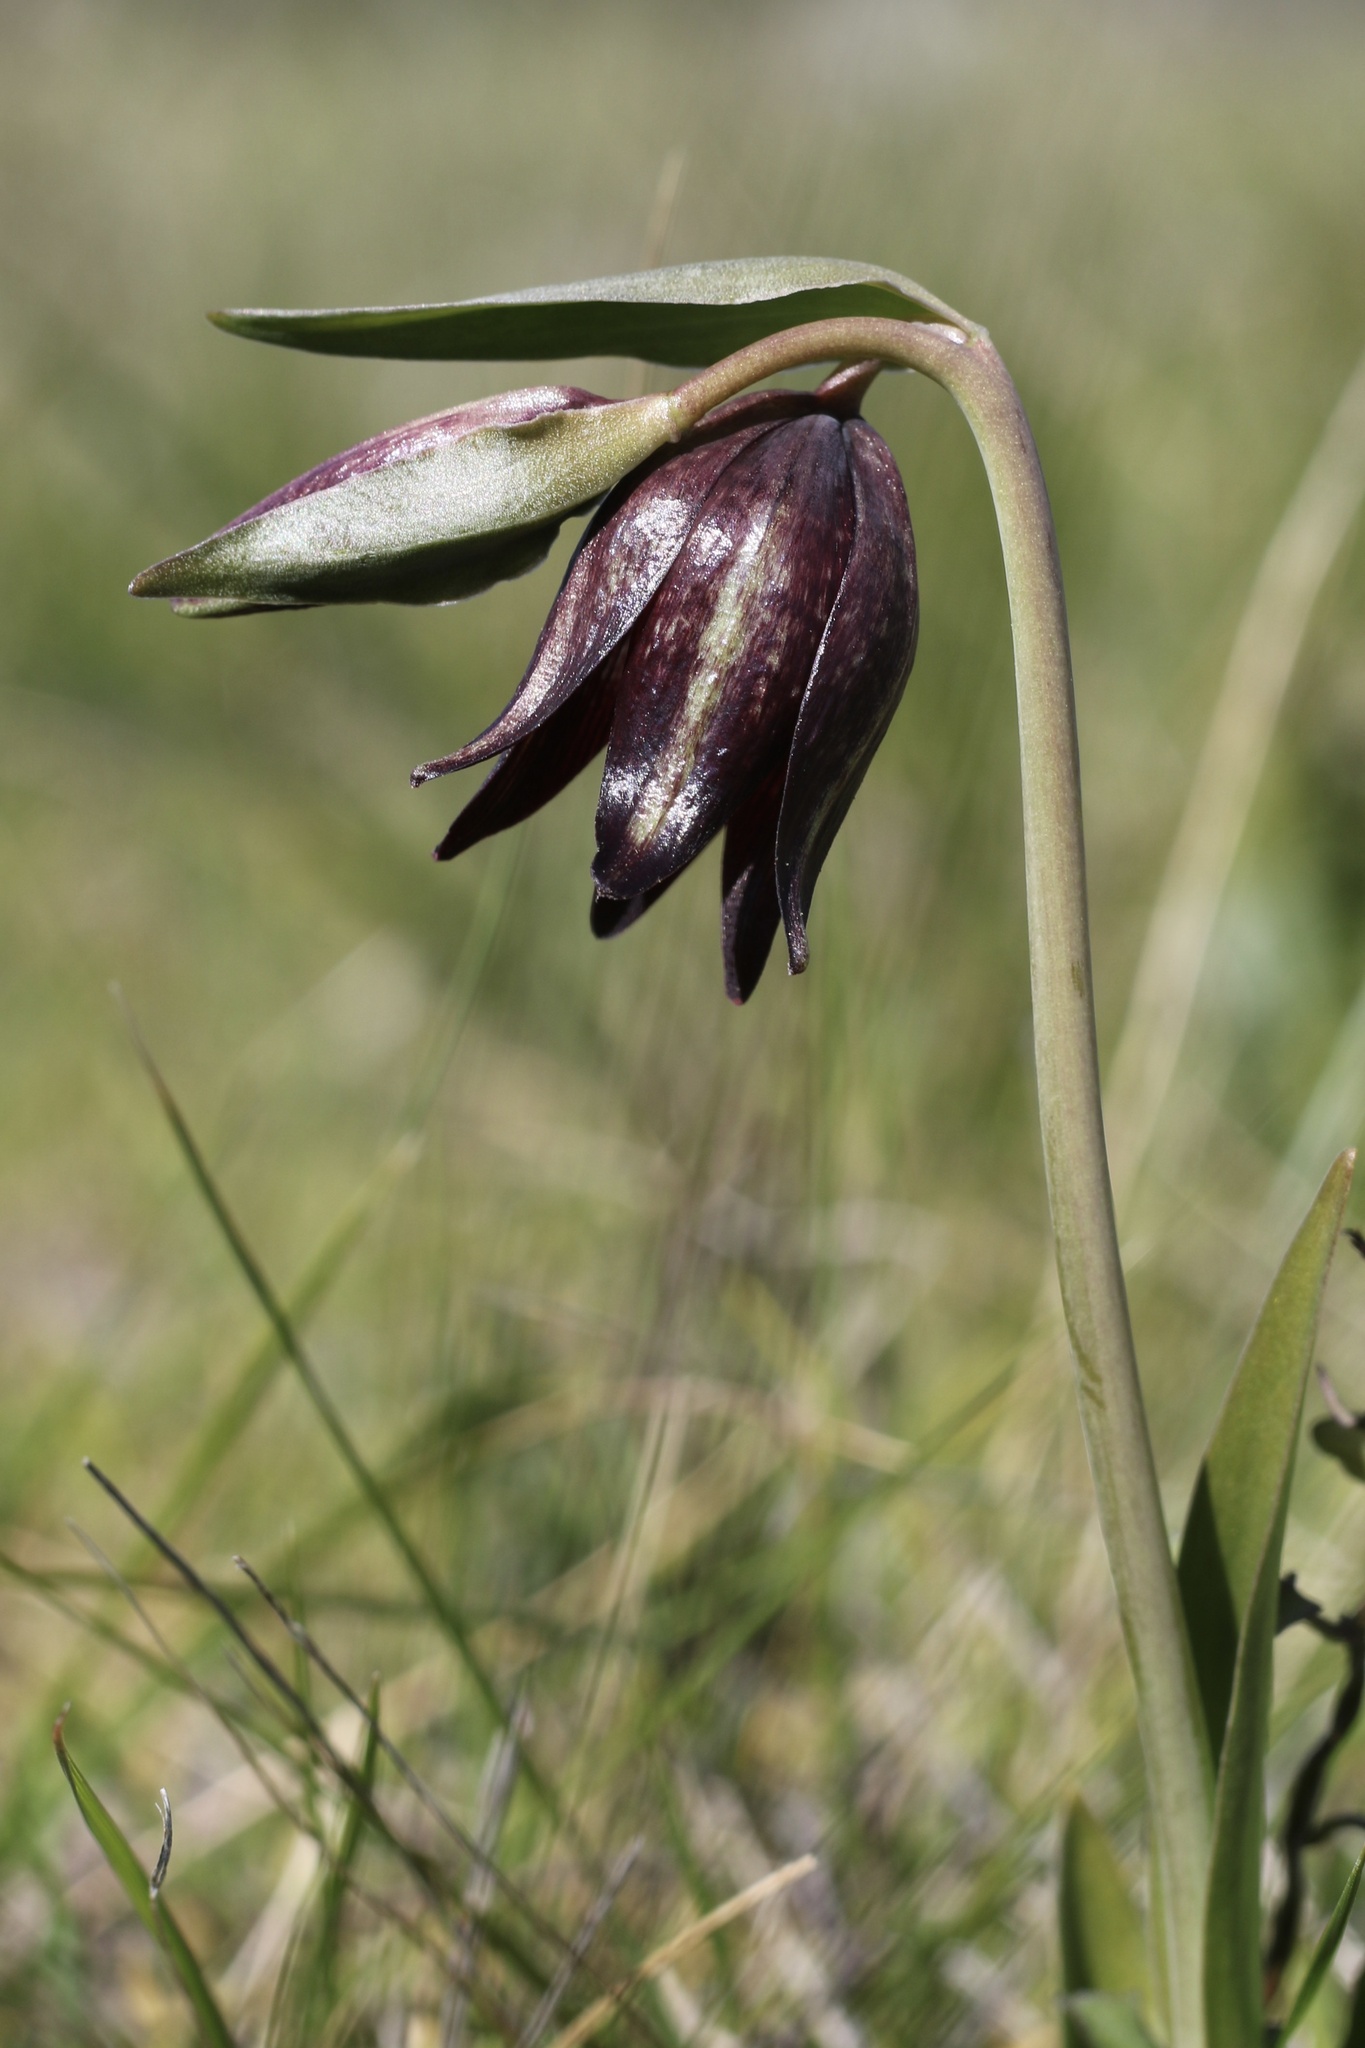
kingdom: Plantae
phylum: Tracheophyta
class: Liliopsida
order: Liliales
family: Liliaceae
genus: Fritillaria
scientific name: Fritillaria biflora
